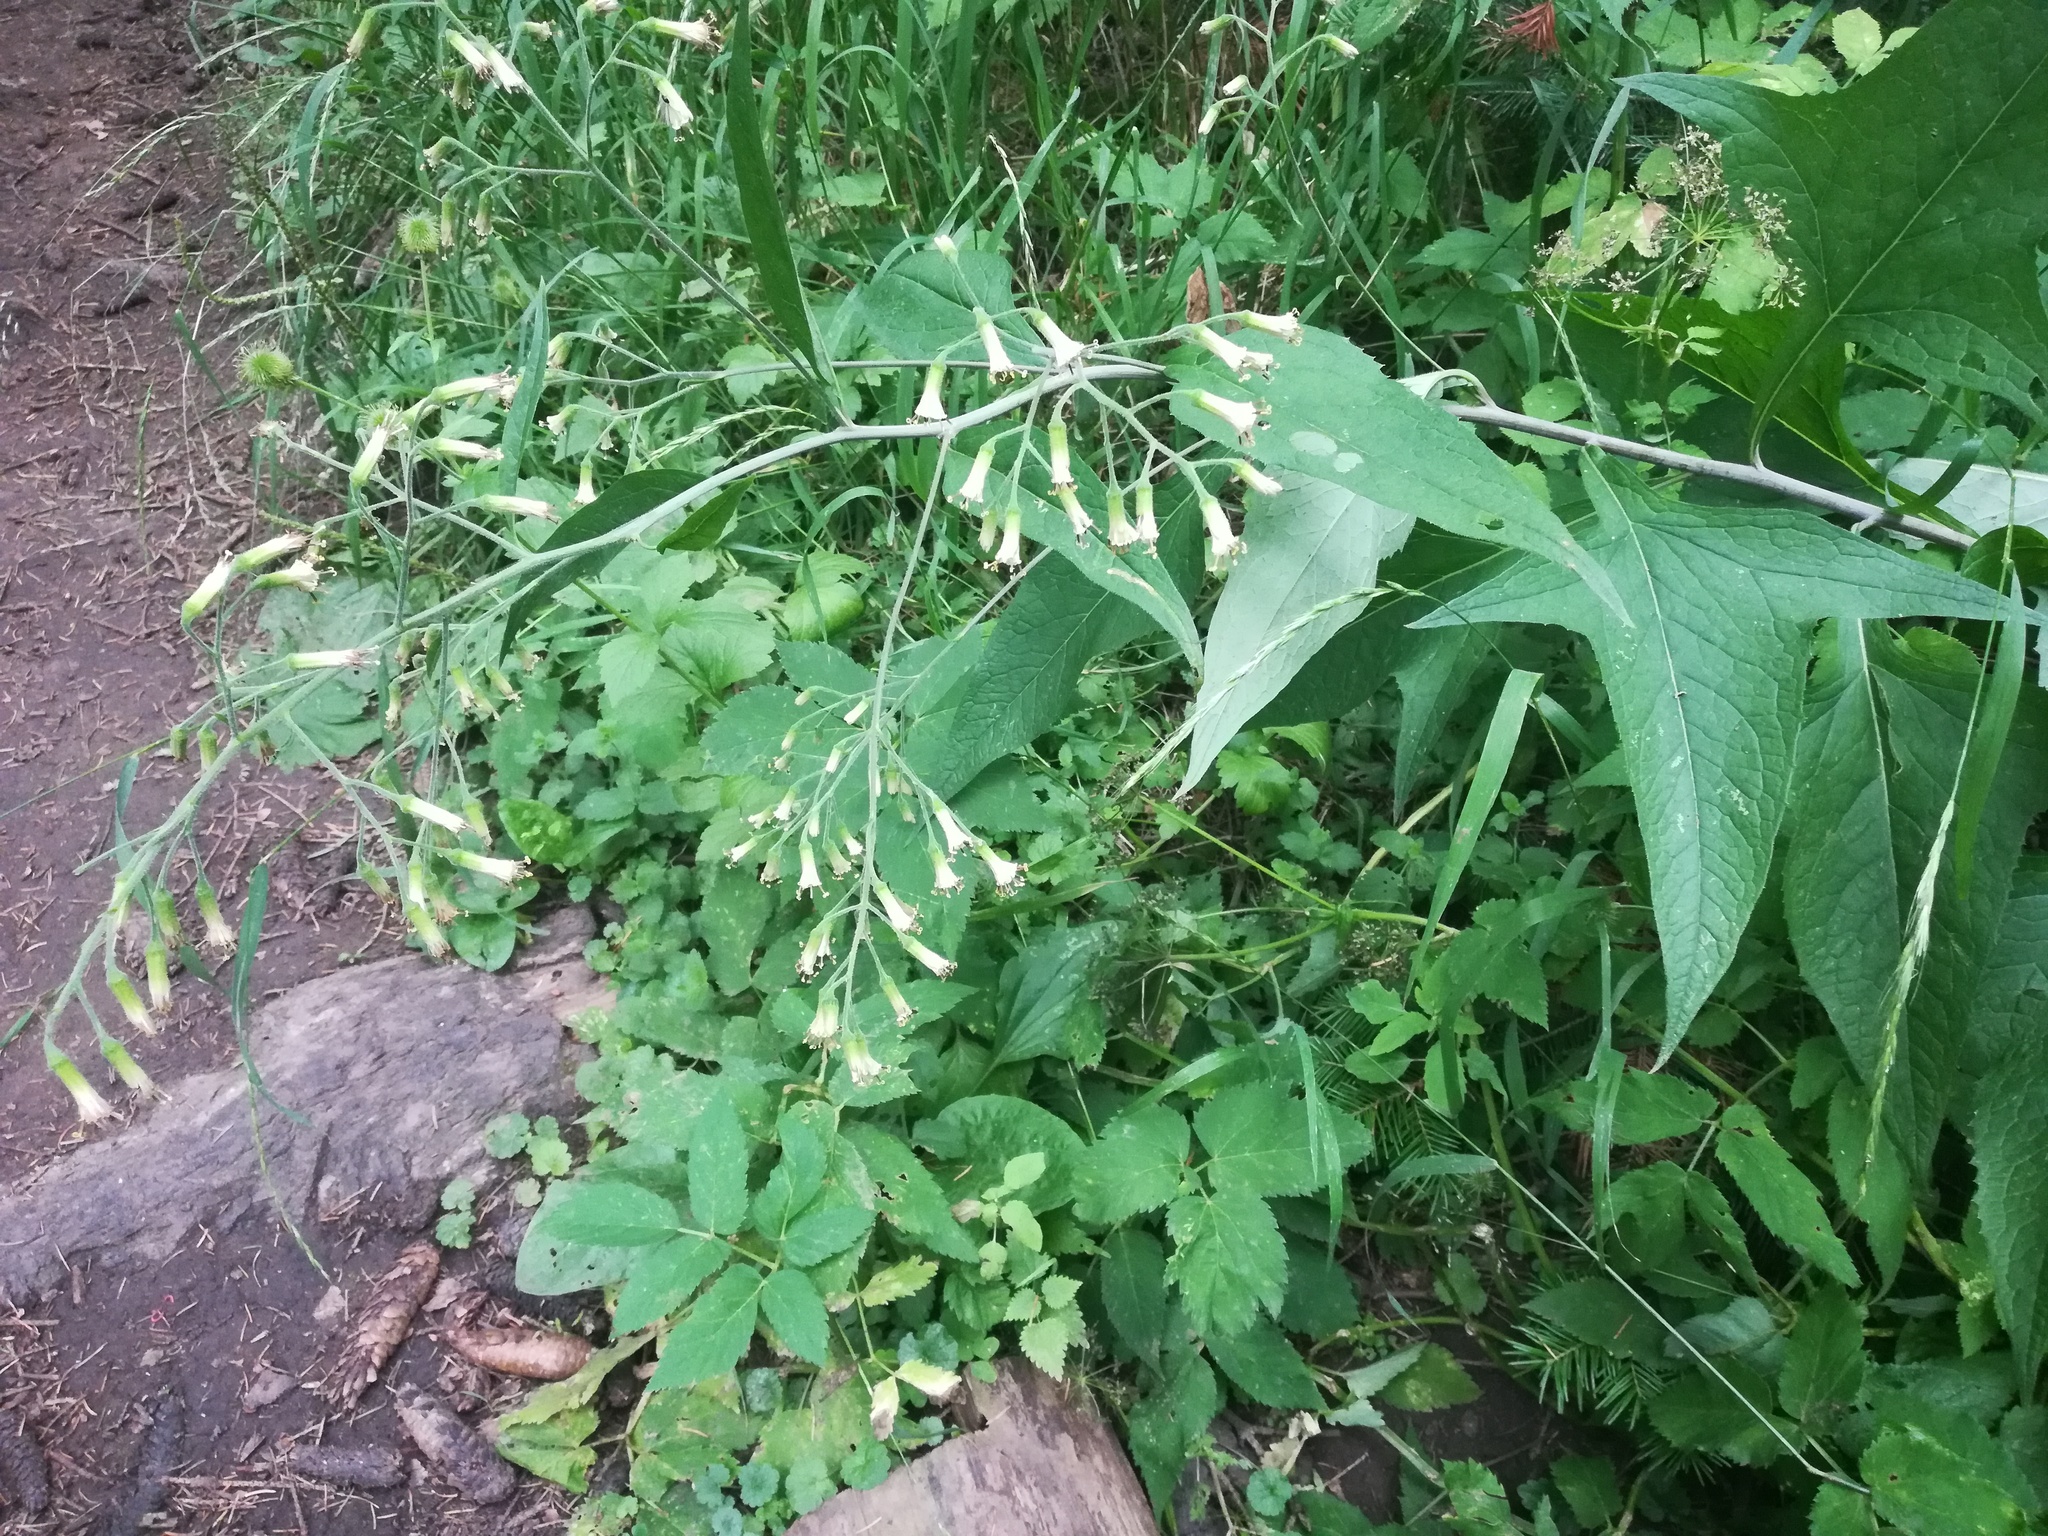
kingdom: Plantae
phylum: Tracheophyta
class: Magnoliopsida
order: Asterales
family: Asteraceae
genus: Parasenecio
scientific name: Parasenecio hastatus
